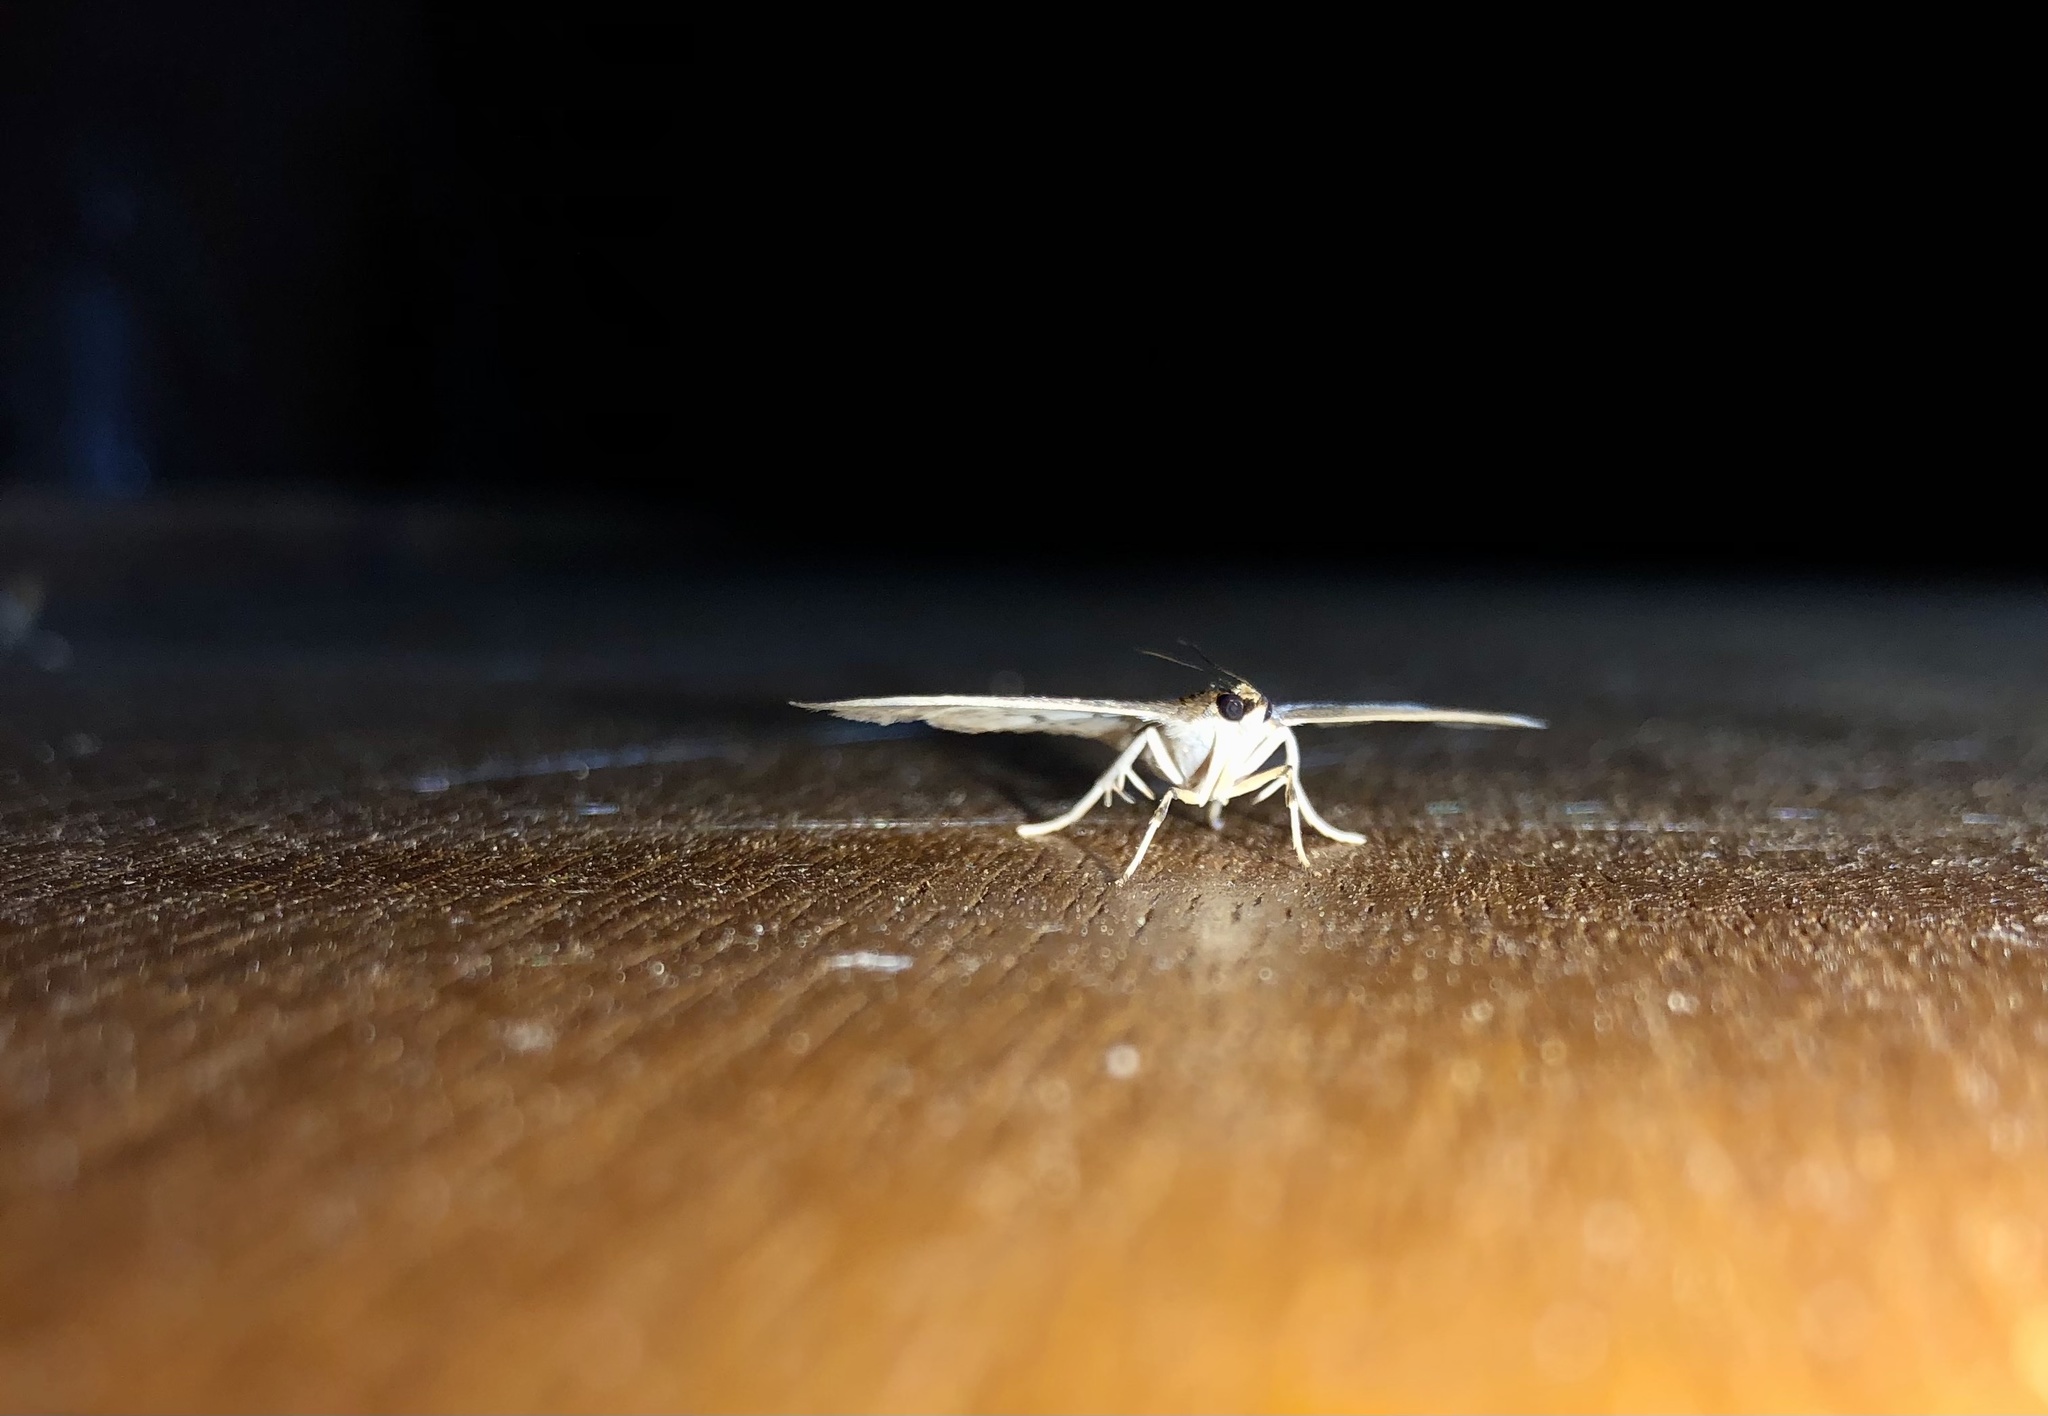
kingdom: Animalia
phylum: Arthropoda
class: Insecta
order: Lepidoptera
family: Crambidae
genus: Herpetogramma
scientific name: Herpetogramma aeglealis
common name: Serpentine webworm moth
